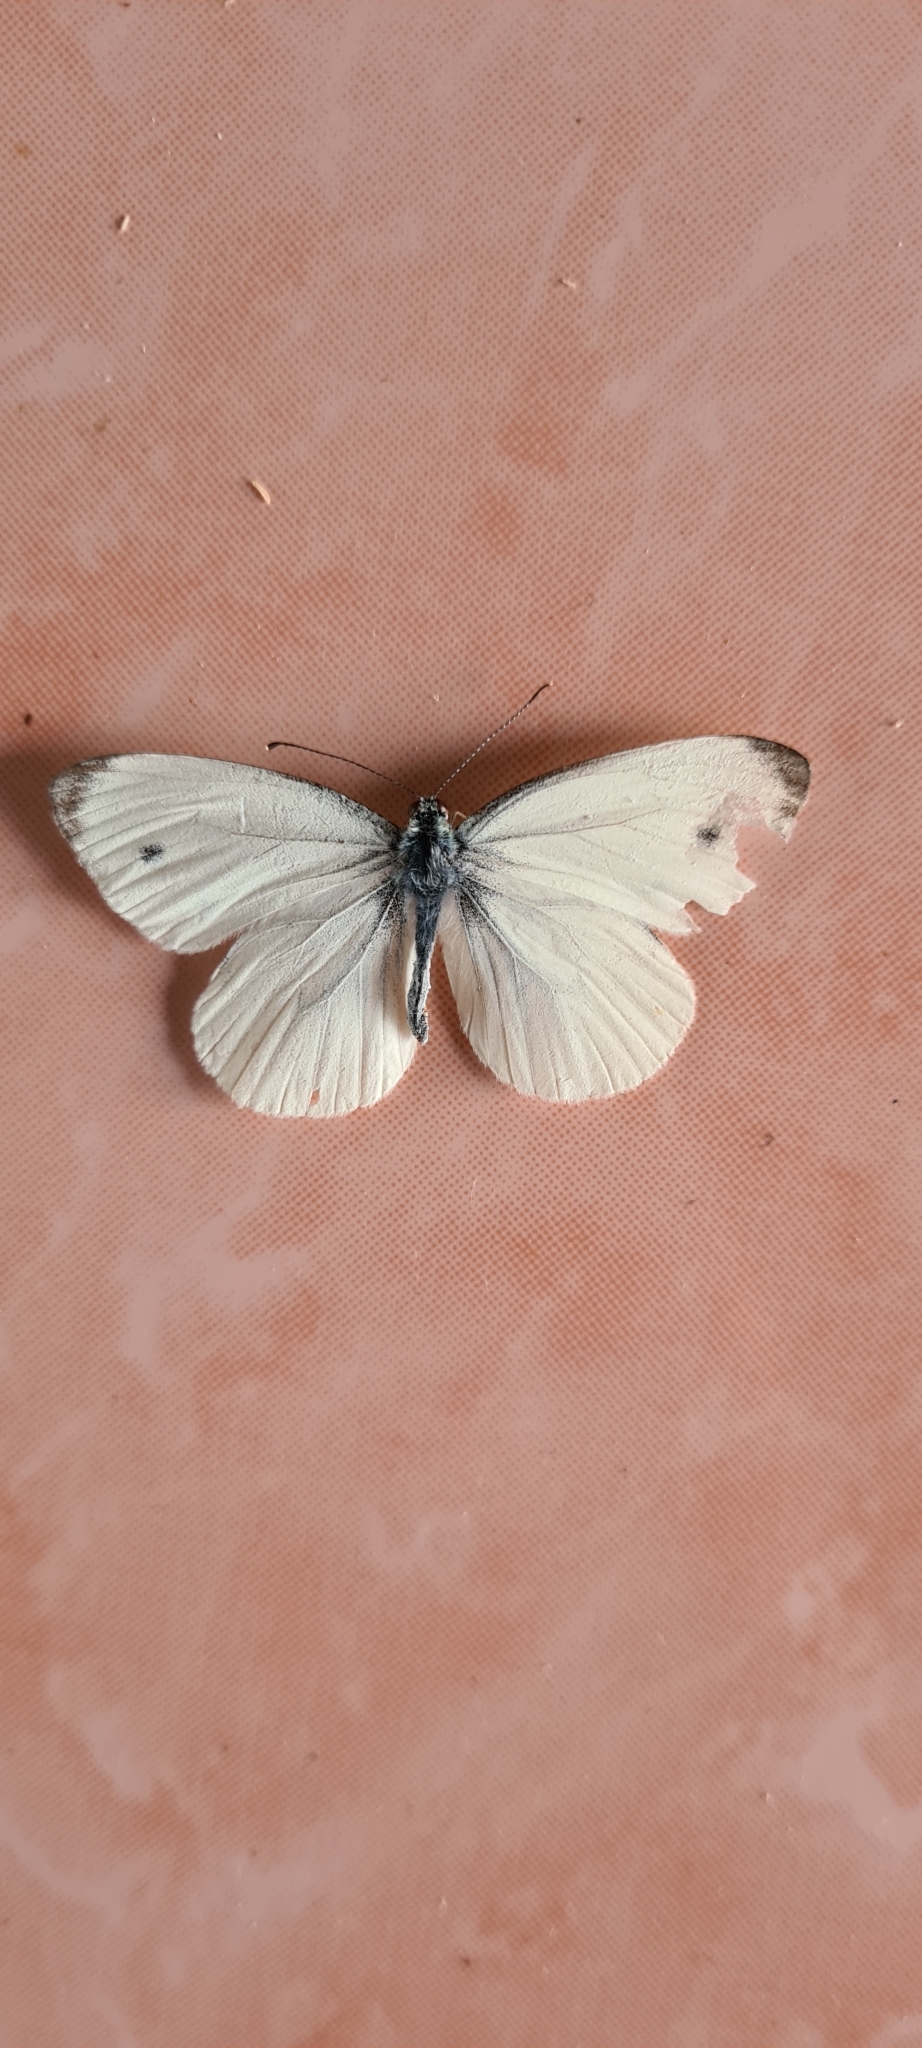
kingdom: Animalia
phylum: Arthropoda
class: Insecta
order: Lepidoptera
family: Pieridae
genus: Pieris
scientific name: Pieris napi
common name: Green-veined white
